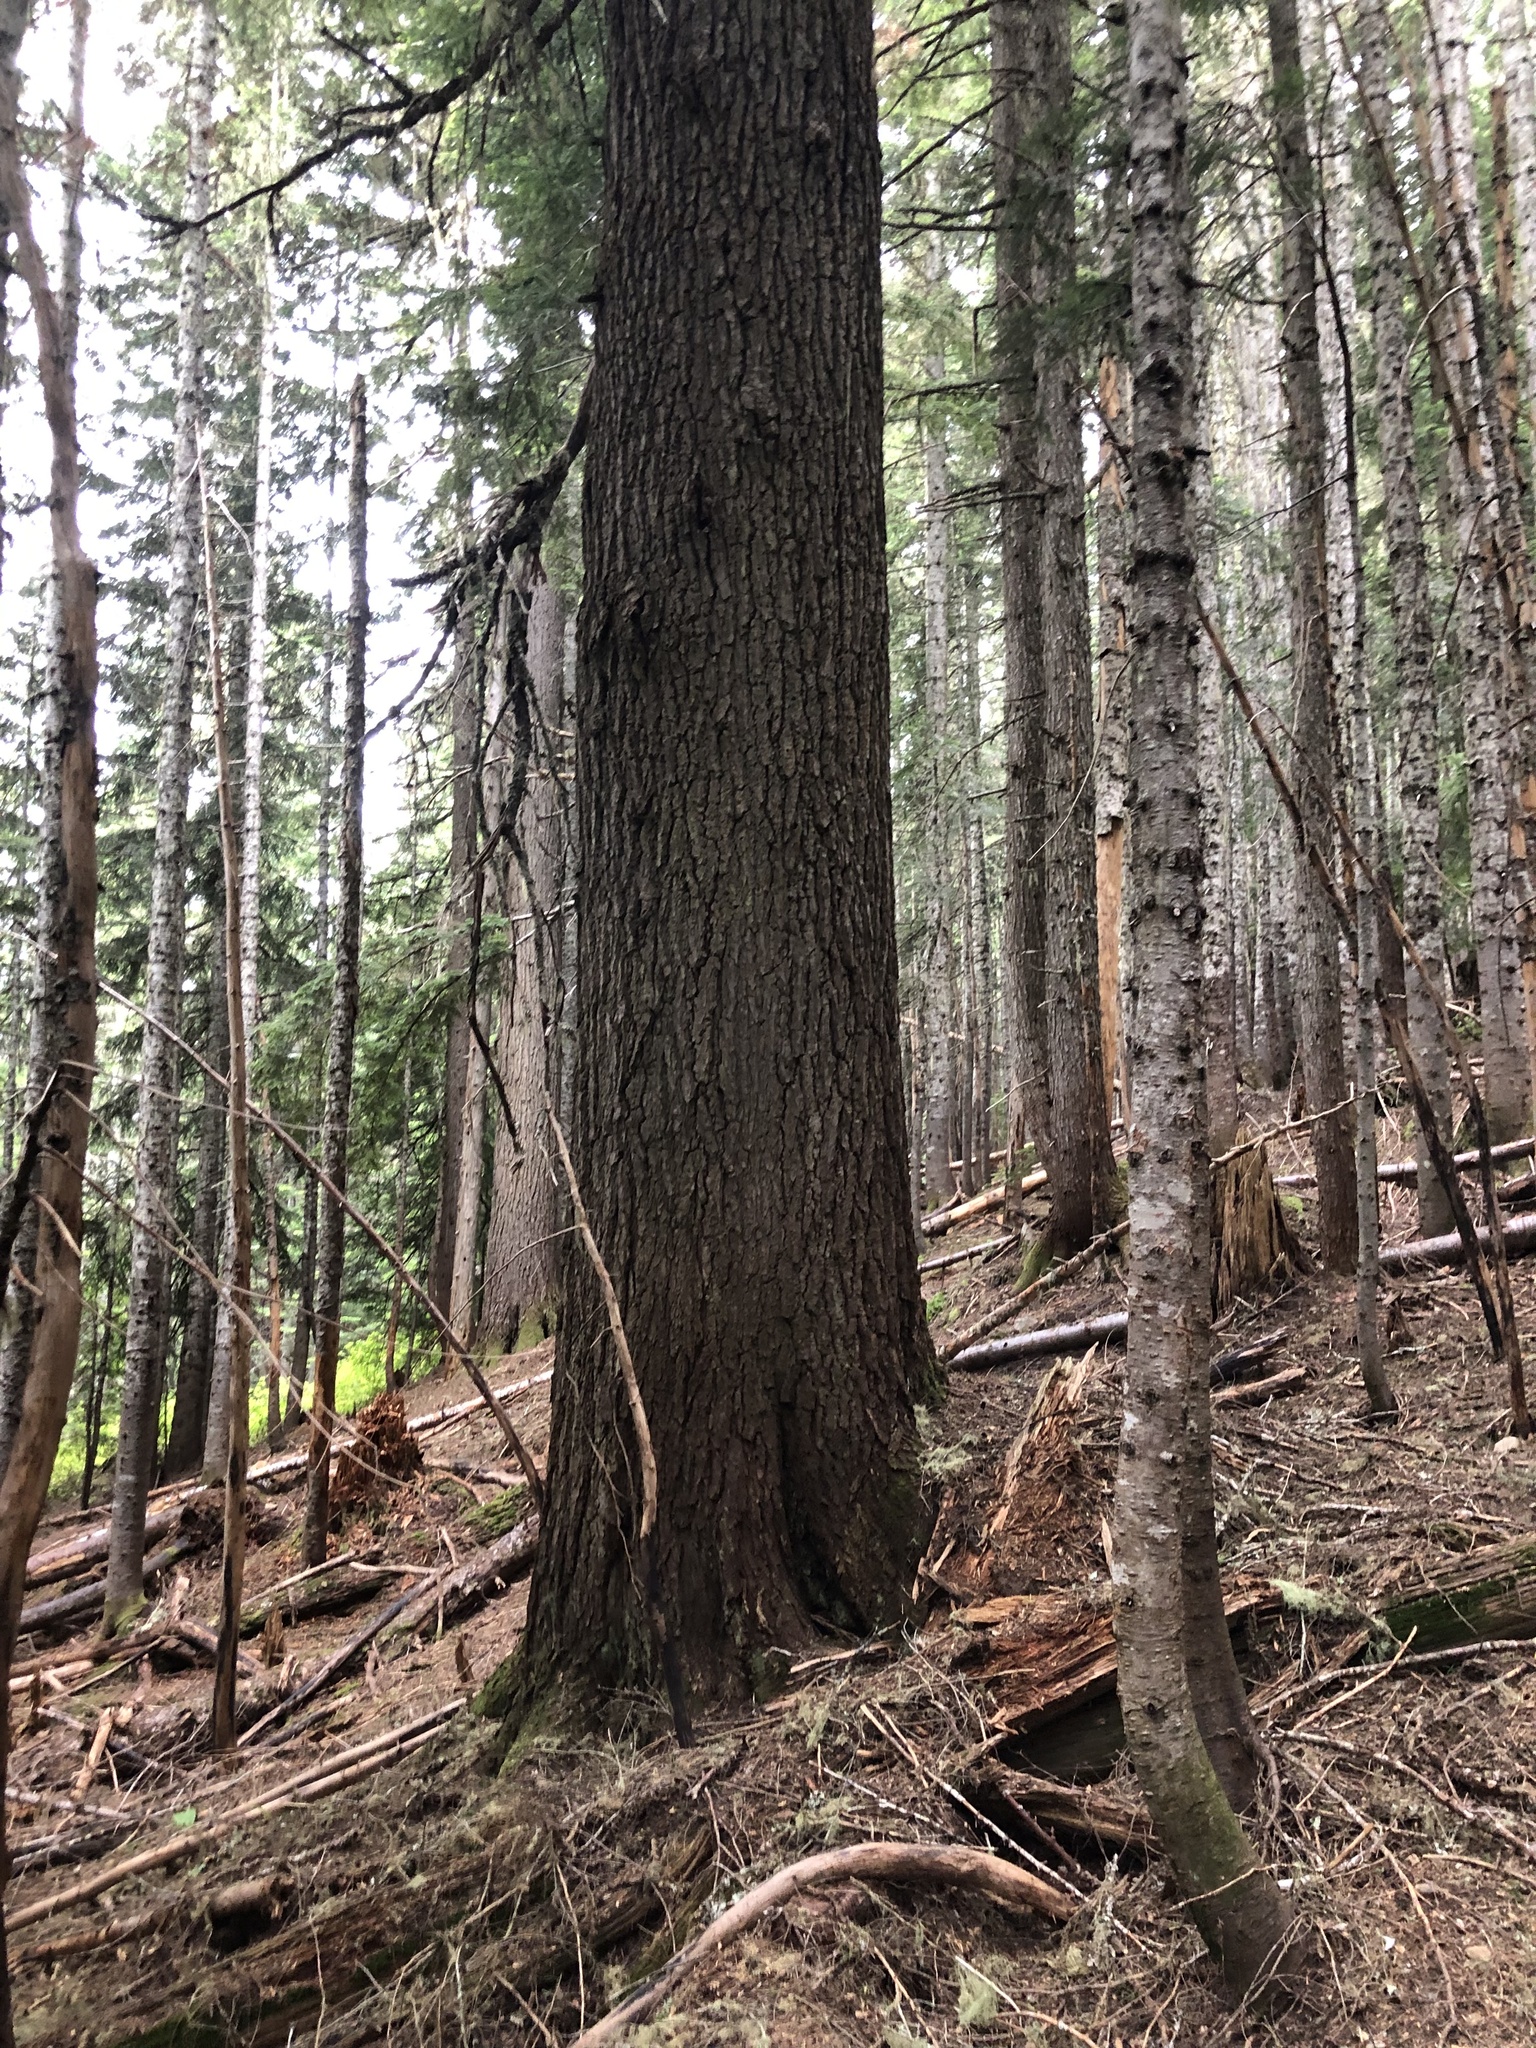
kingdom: Plantae
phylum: Tracheophyta
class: Pinopsida
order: Pinales
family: Pinaceae
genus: Tsuga
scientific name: Tsuga heterophylla
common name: Western hemlock
